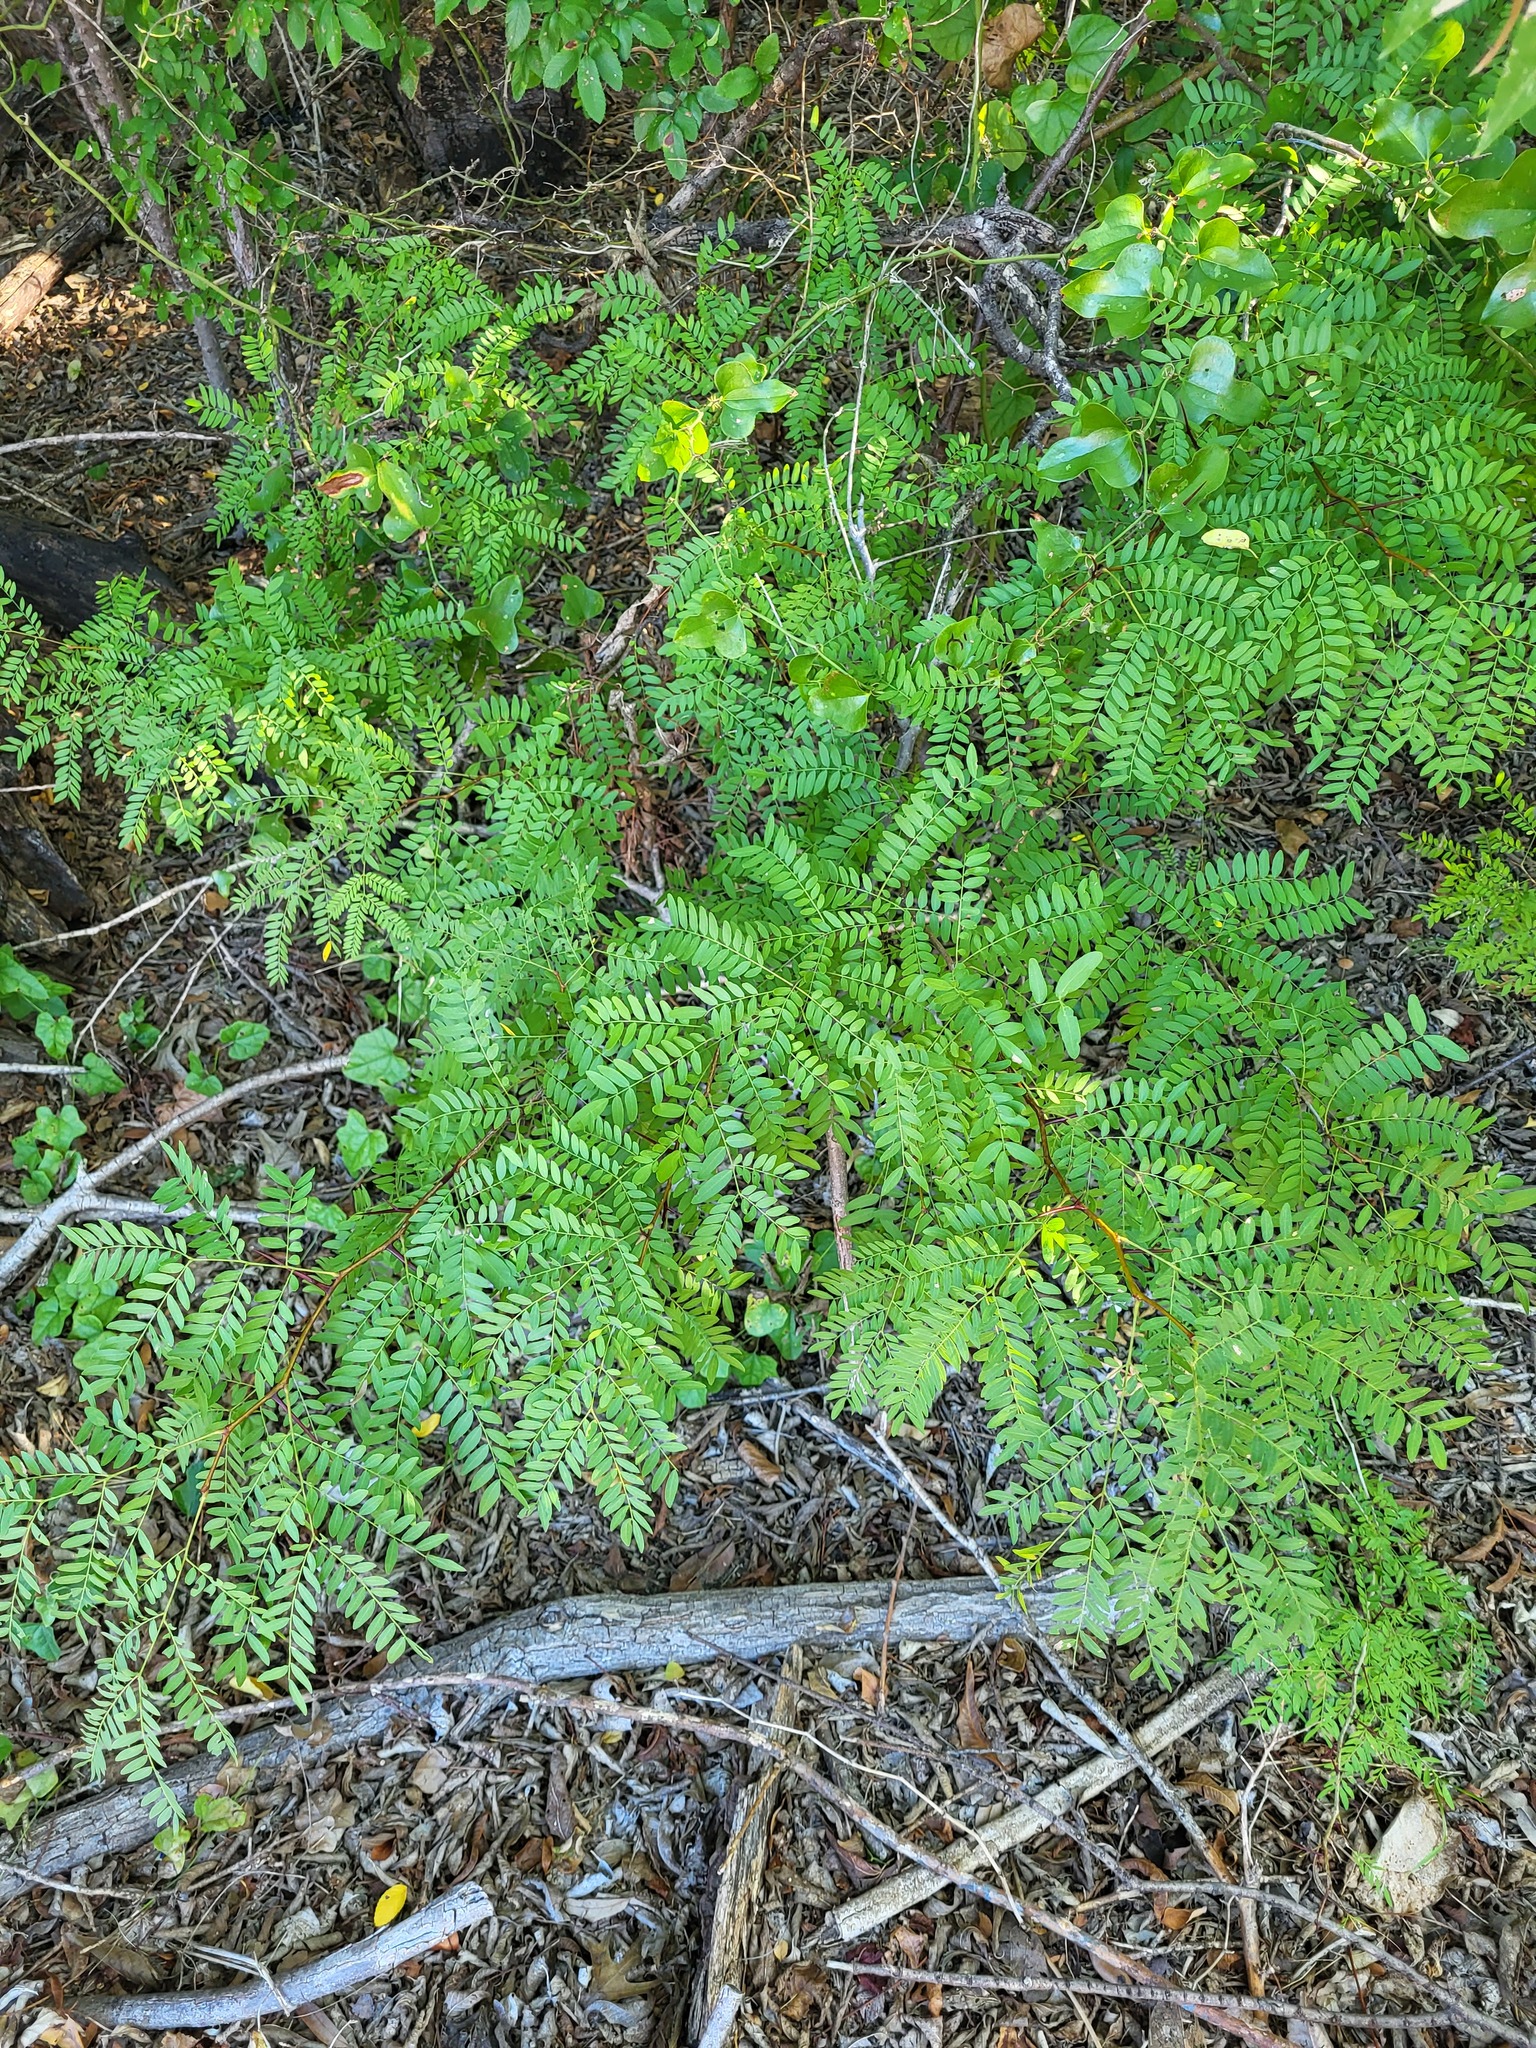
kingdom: Plantae
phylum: Tracheophyta
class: Magnoliopsida
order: Fabales
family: Fabaceae
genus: Gleditsia
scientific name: Gleditsia triacanthos
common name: Common honeylocust
